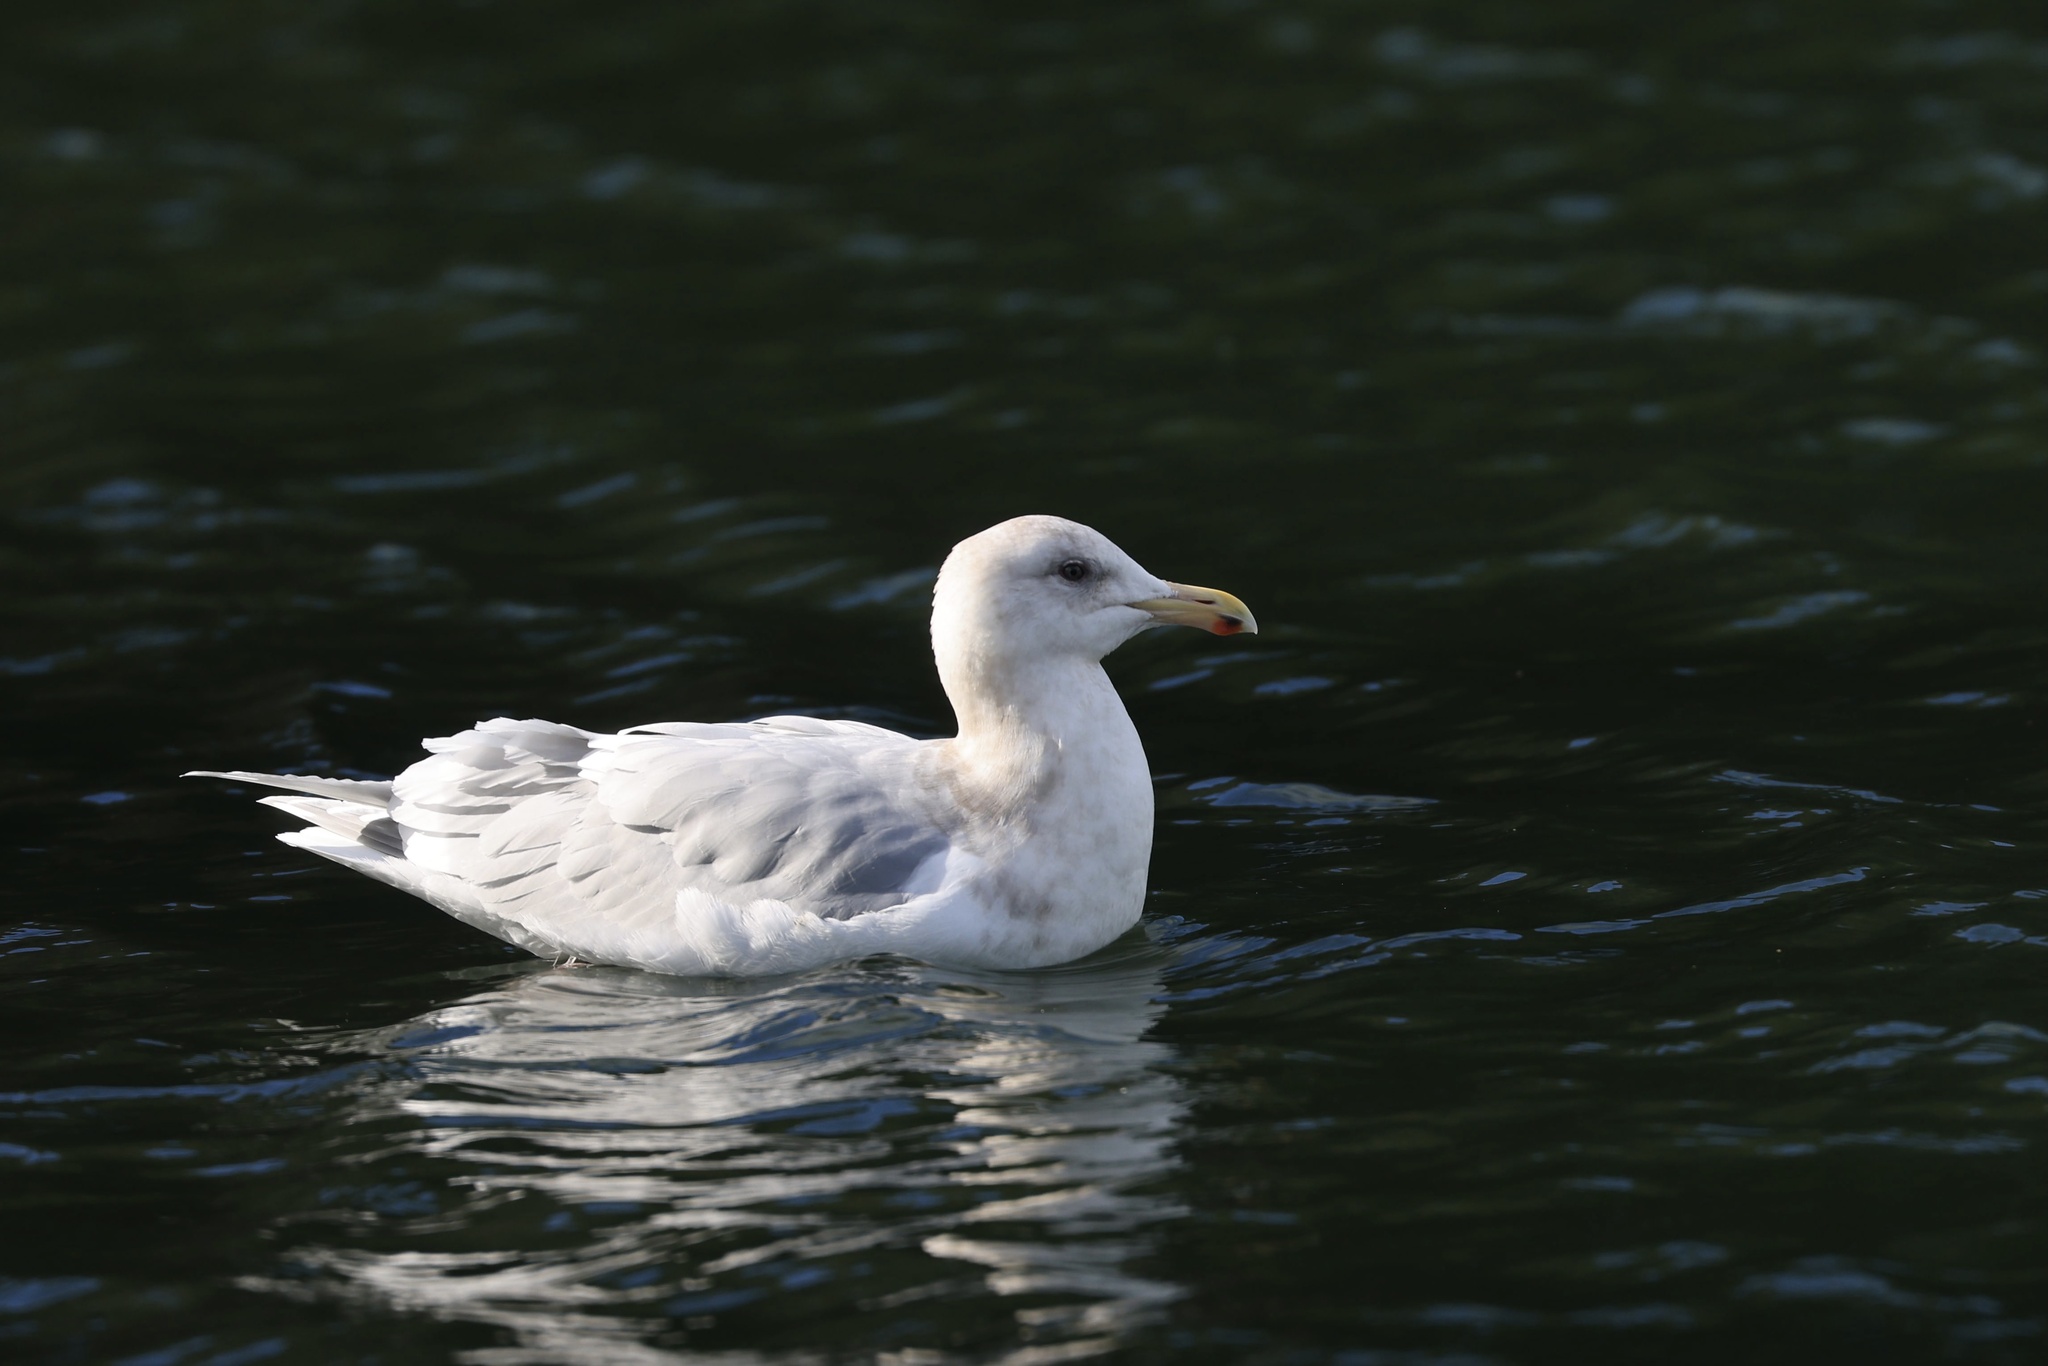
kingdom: Animalia
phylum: Chordata
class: Aves
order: Charadriiformes
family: Laridae
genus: Larus
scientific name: Larus glaucescens
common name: Glaucous-winged gull
